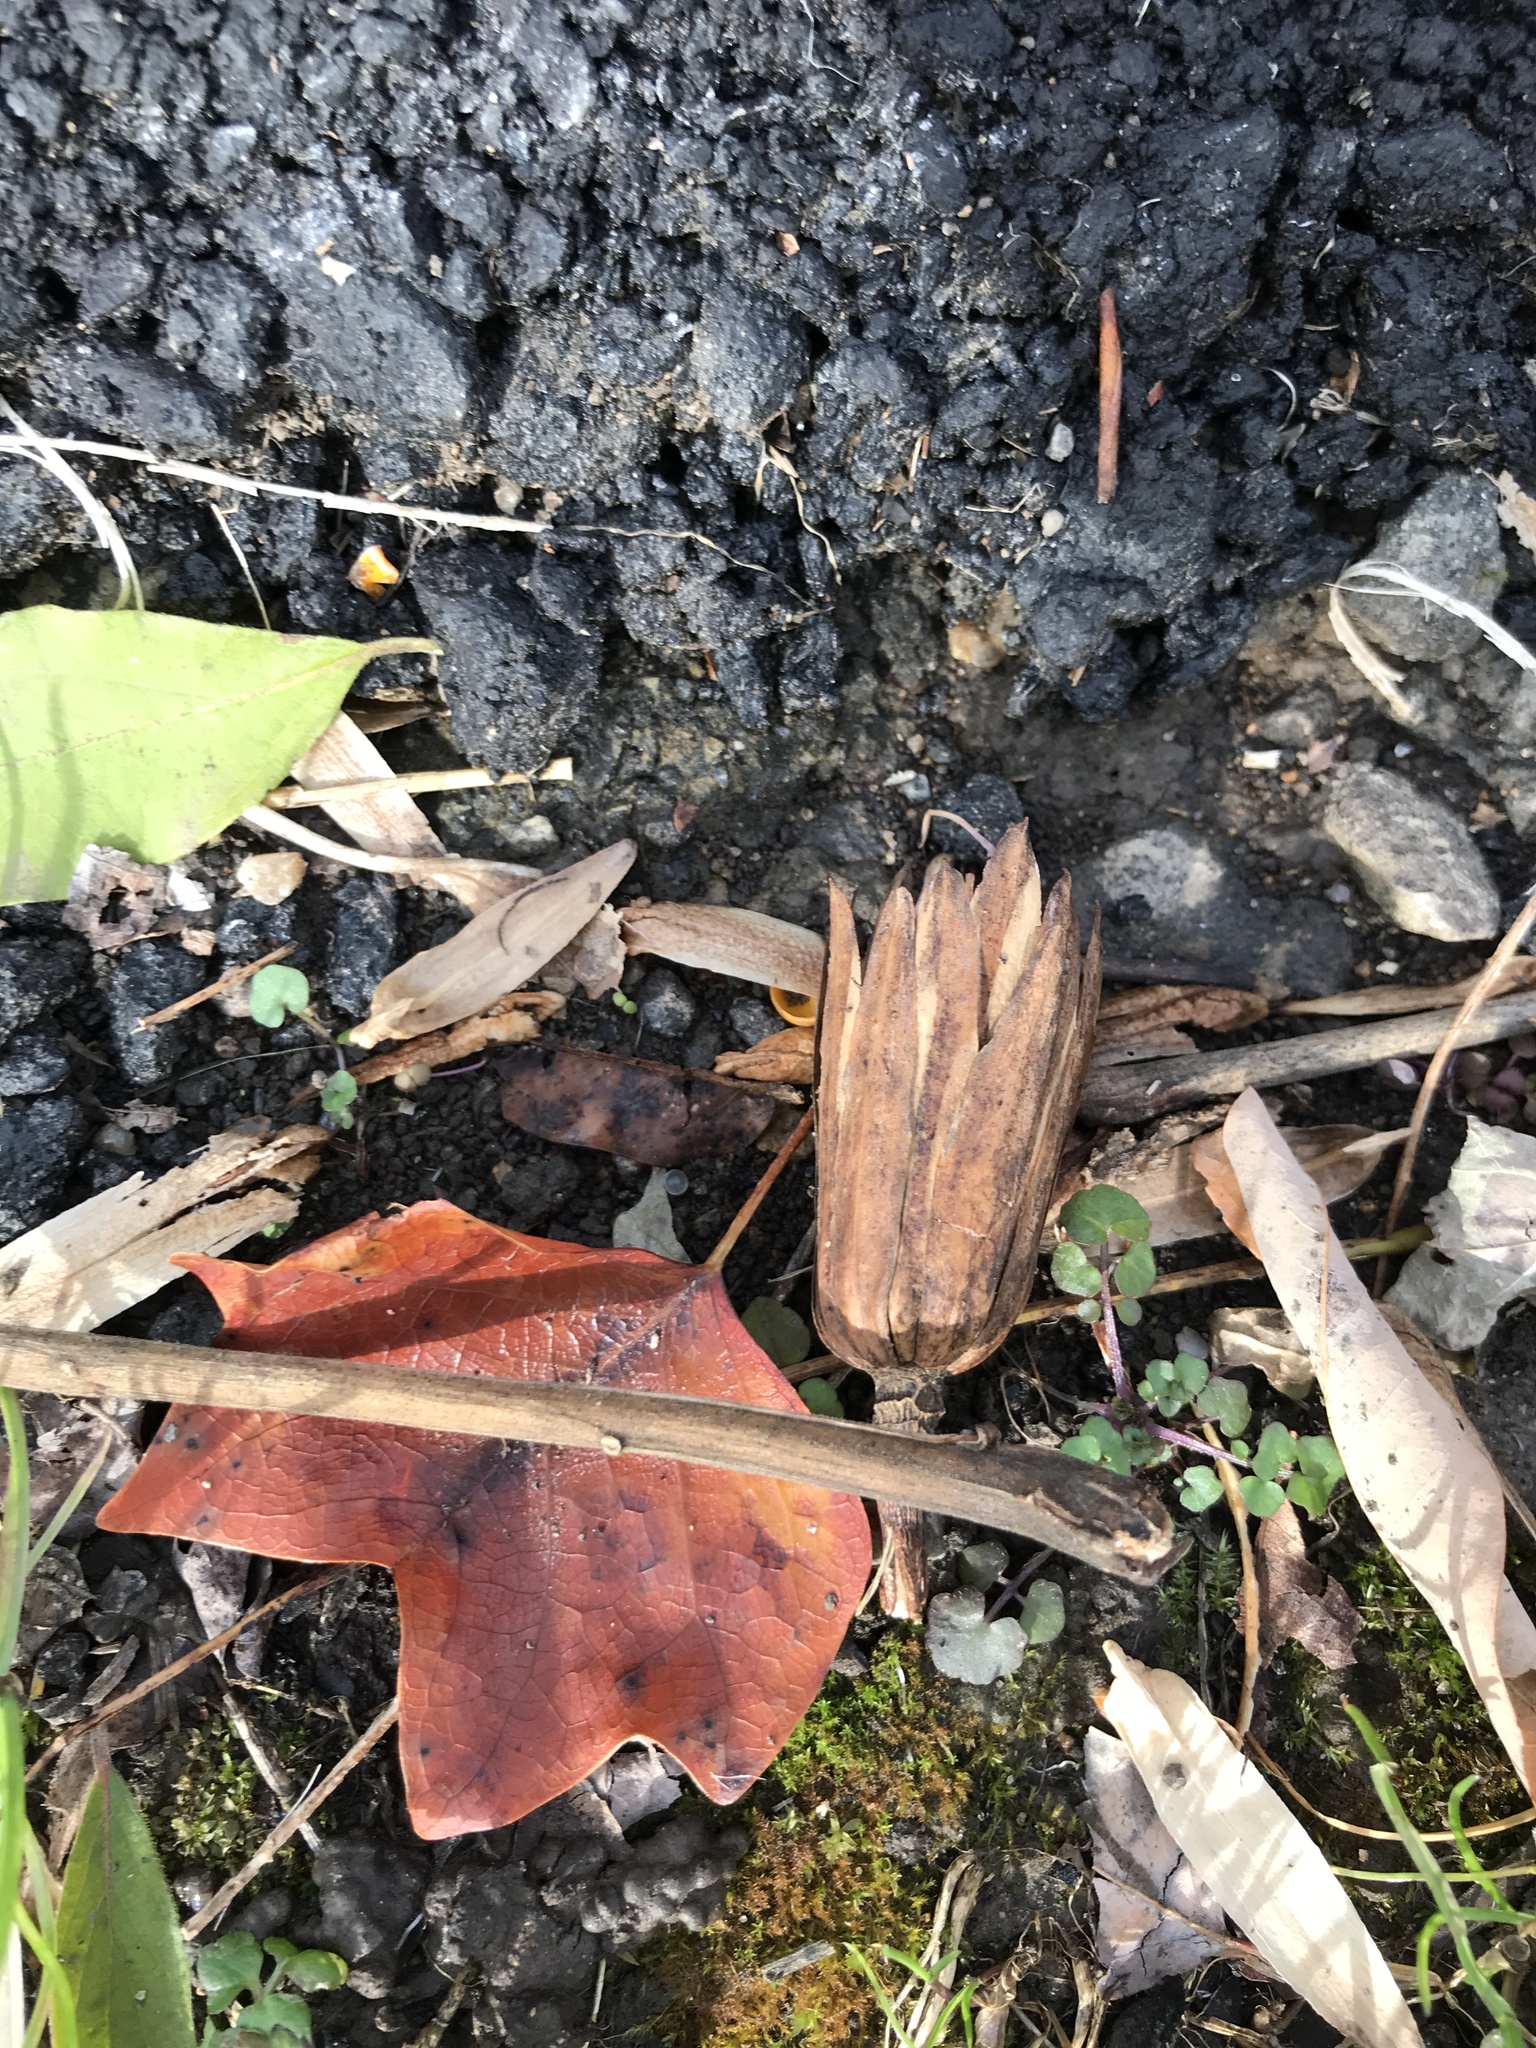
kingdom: Plantae
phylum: Tracheophyta
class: Magnoliopsida
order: Magnoliales
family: Magnoliaceae
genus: Liriodendron
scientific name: Liriodendron tulipifera
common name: Tulip tree
